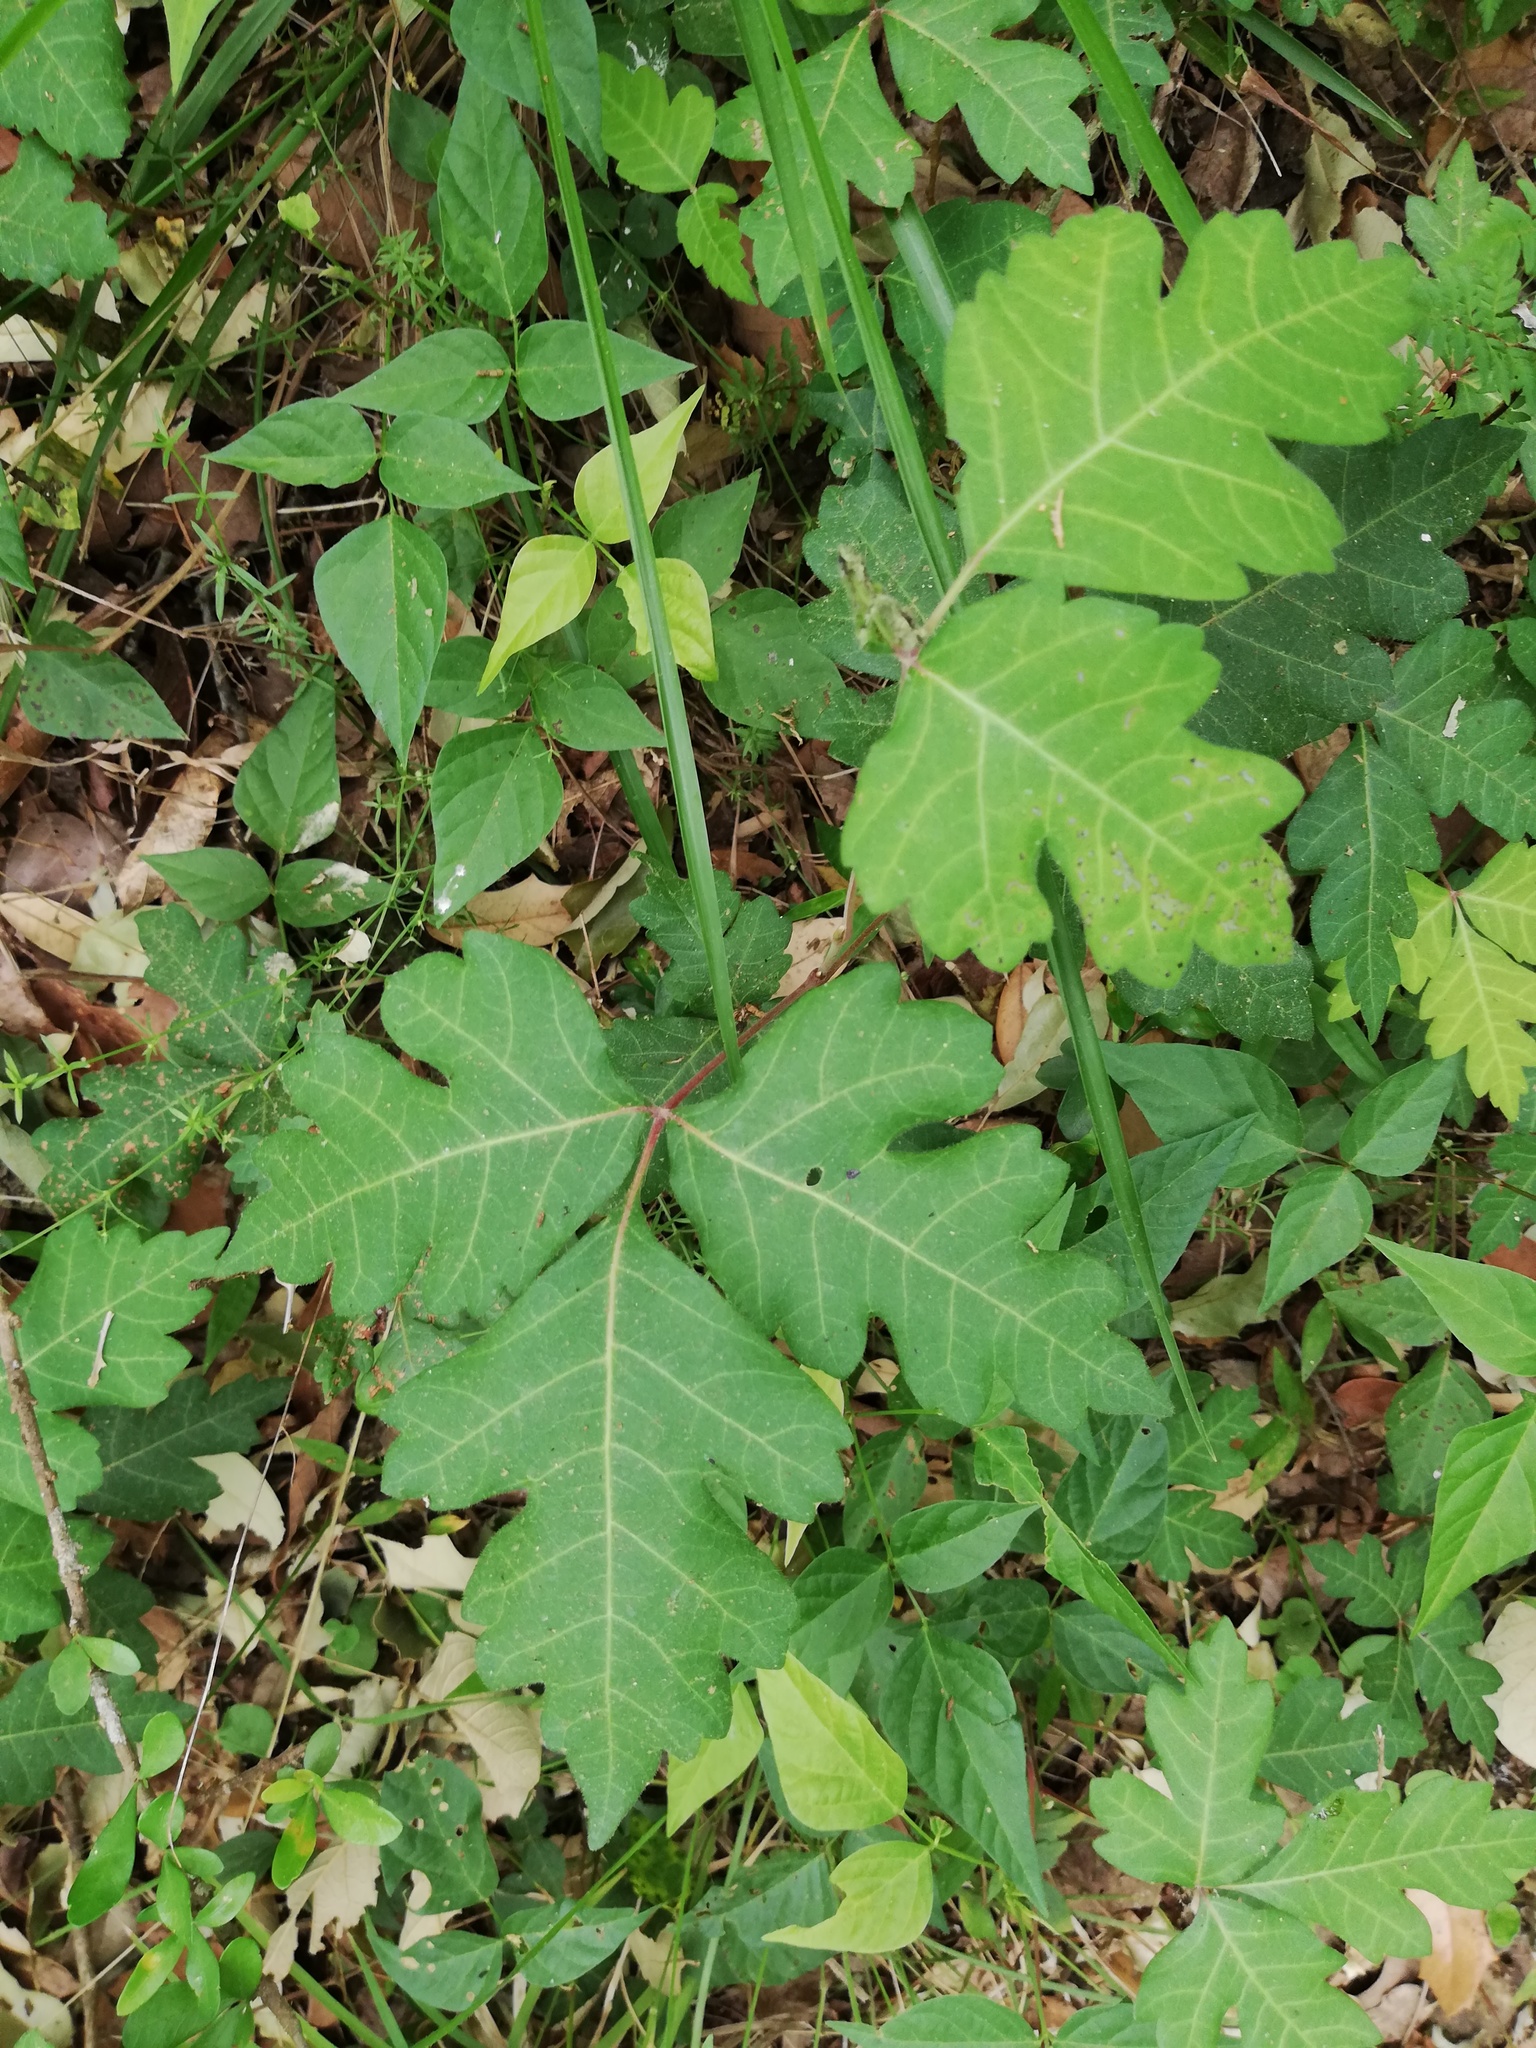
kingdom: Plantae
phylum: Tracheophyta
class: Magnoliopsida
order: Sapindales
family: Anacardiaceae
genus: Toxicodendron
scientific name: Toxicodendron radicans
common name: Poison ivy
